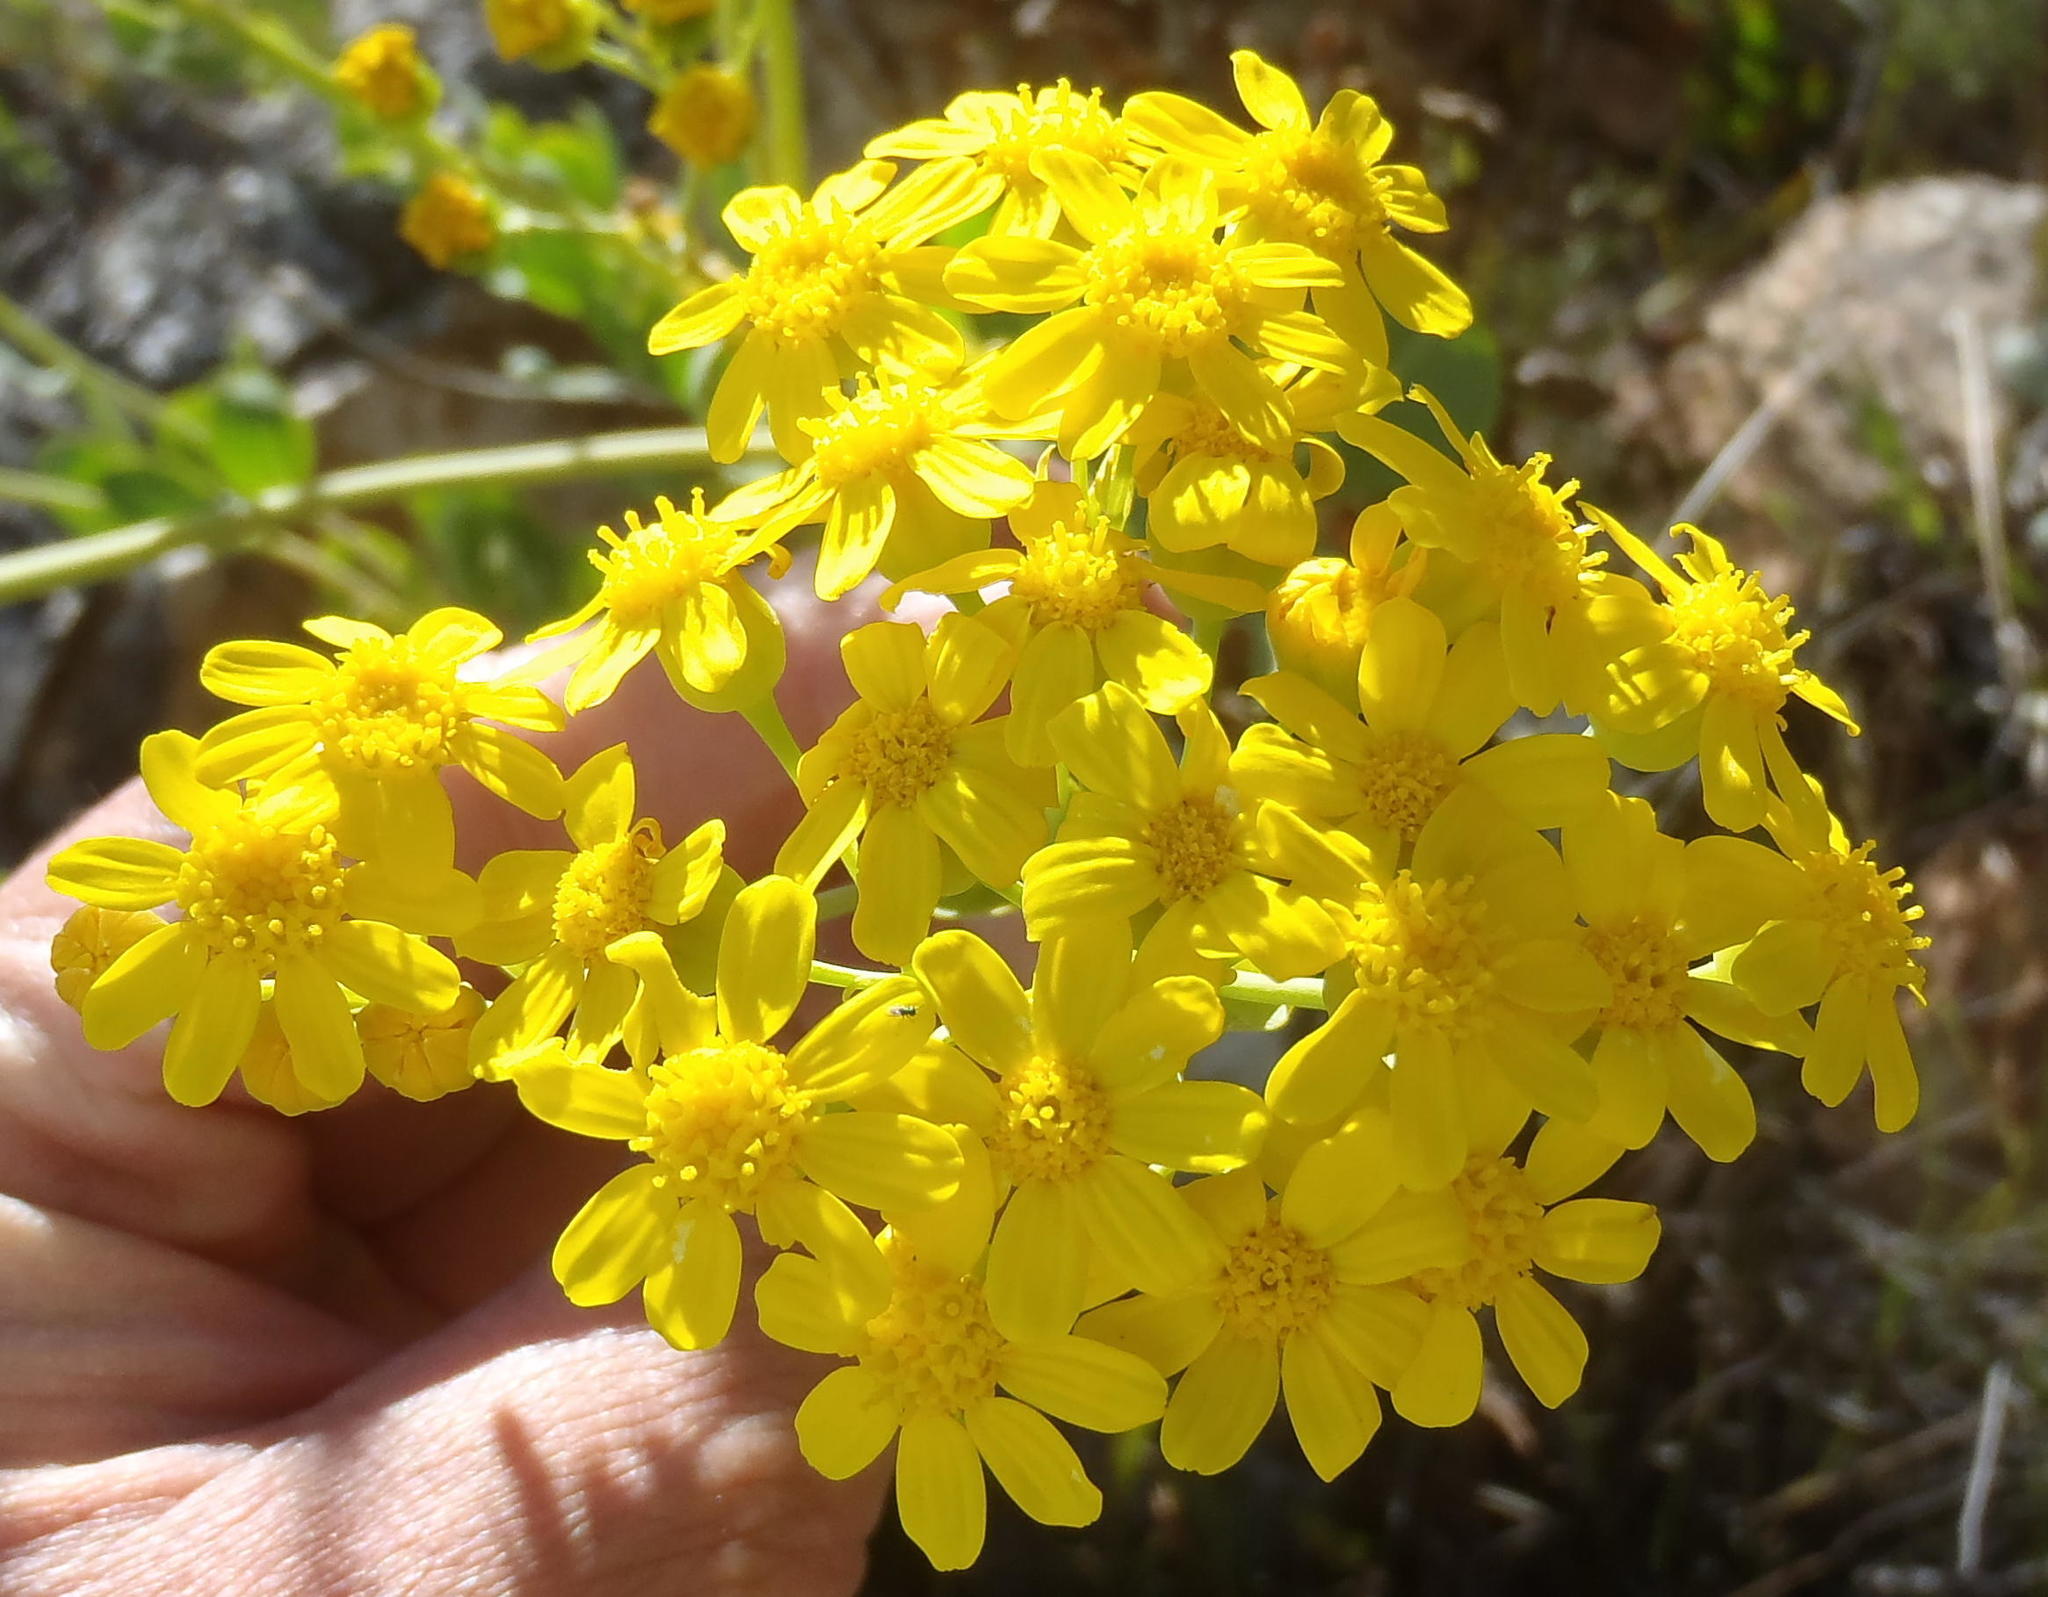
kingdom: Plantae
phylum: Tracheophyta
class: Magnoliopsida
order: Asterales
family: Asteraceae
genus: Othonna
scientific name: Othonna parviflora
